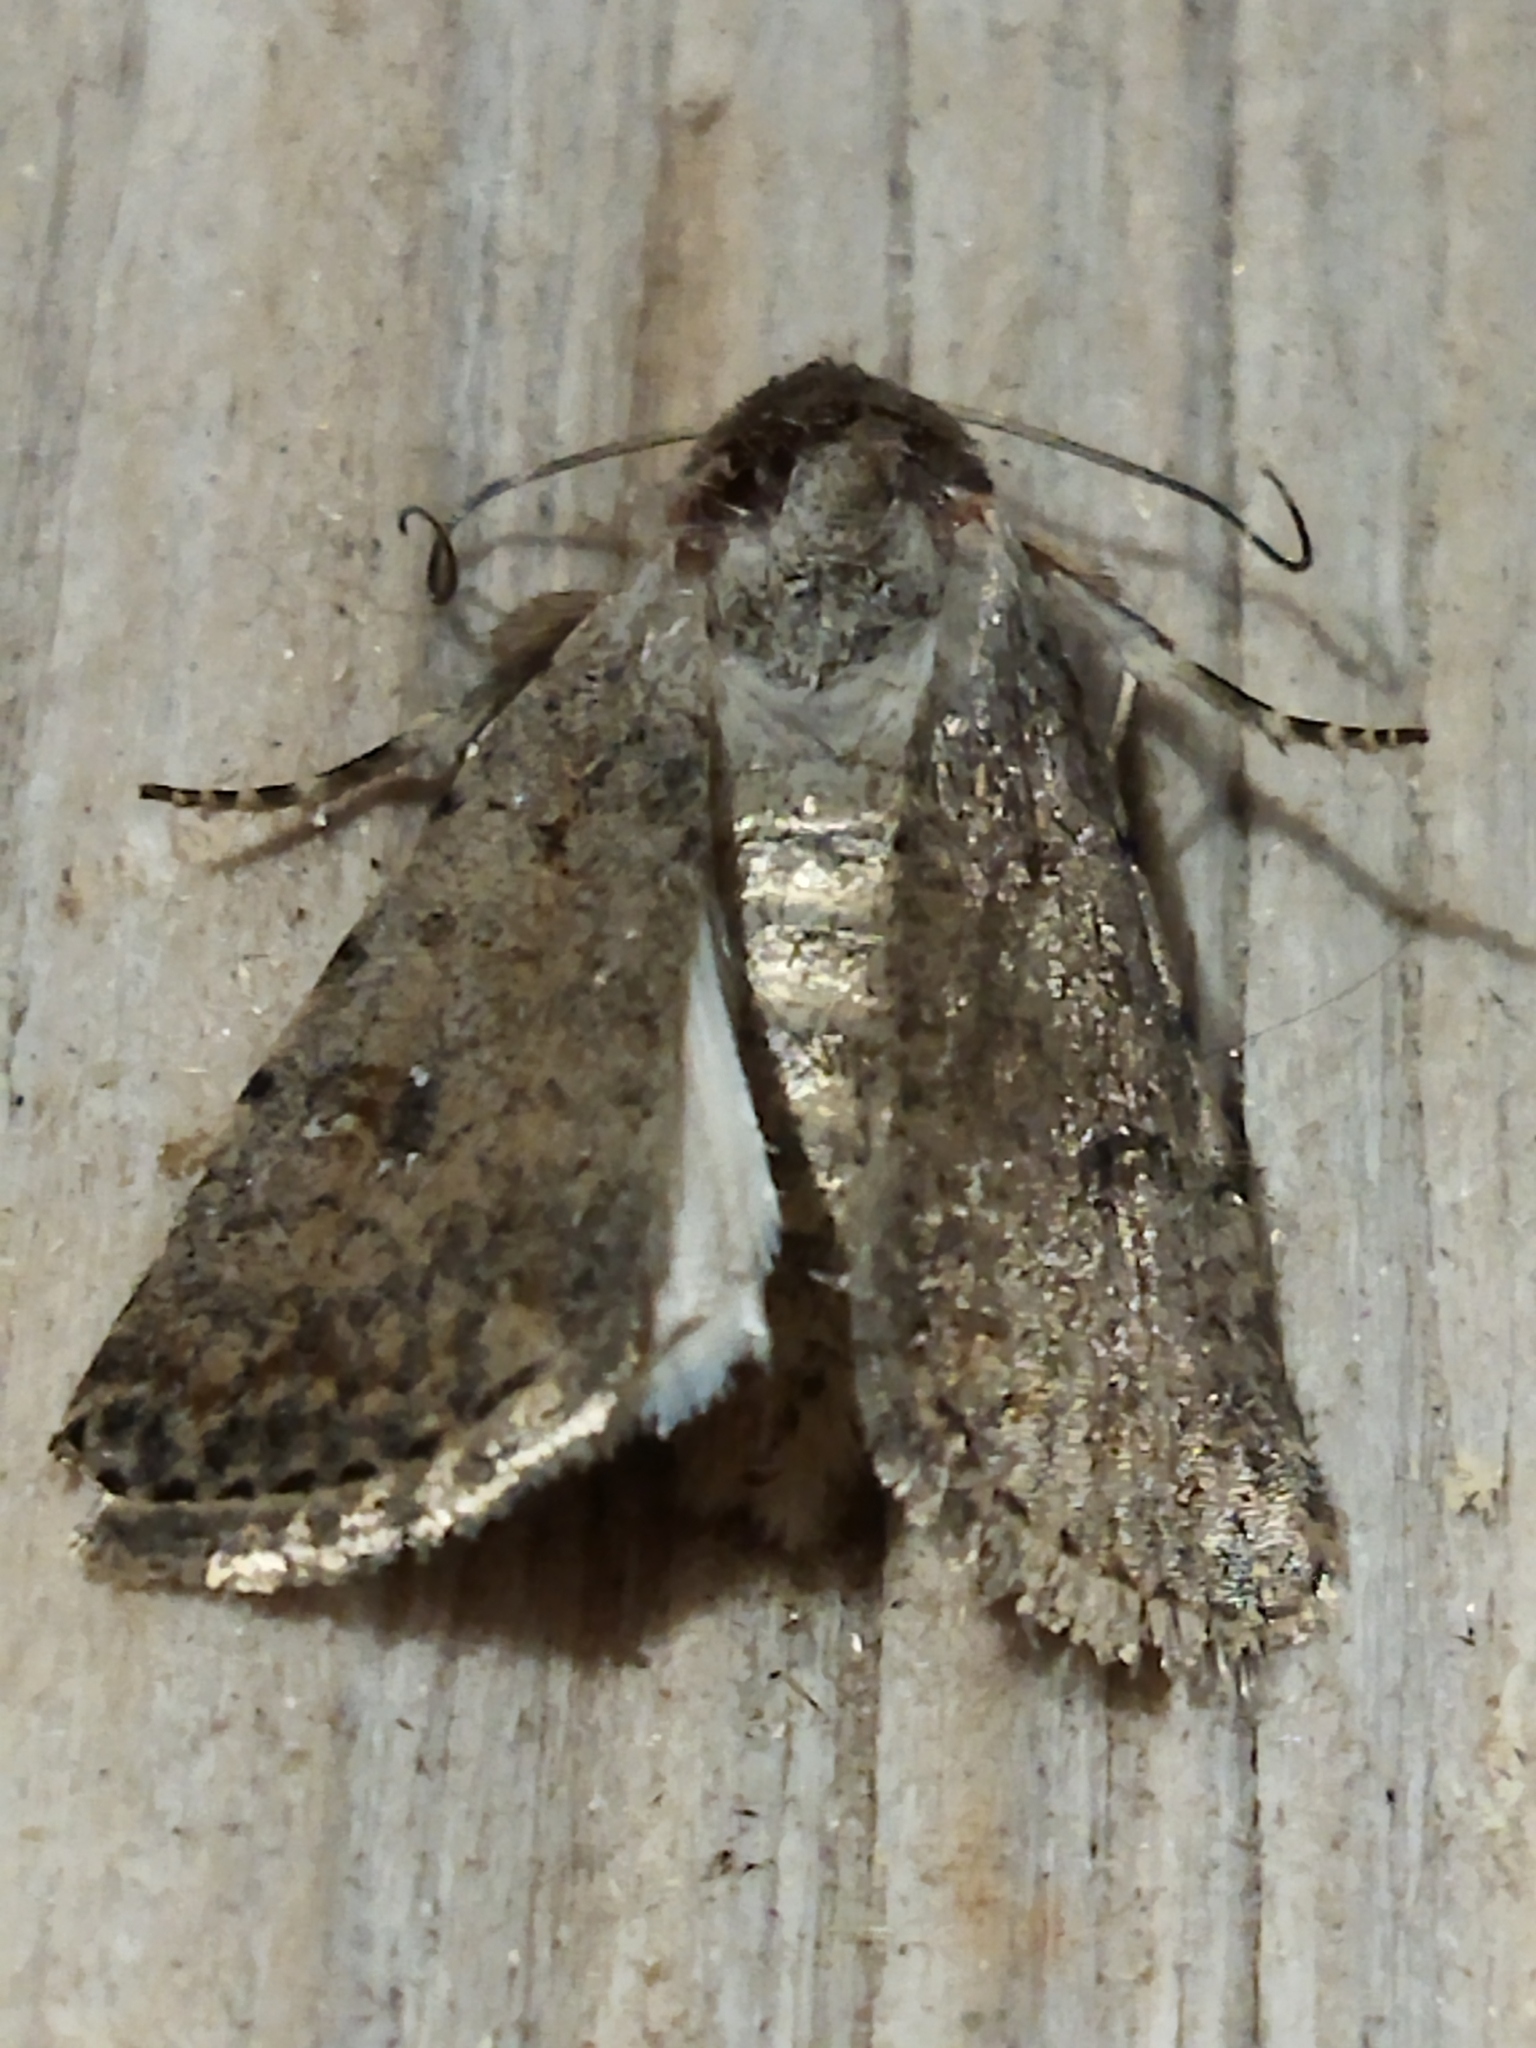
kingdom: Animalia
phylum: Arthropoda
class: Insecta
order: Lepidoptera
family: Noctuidae
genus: Caradrina
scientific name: Caradrina clavipalpis
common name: Pale mottled willow
